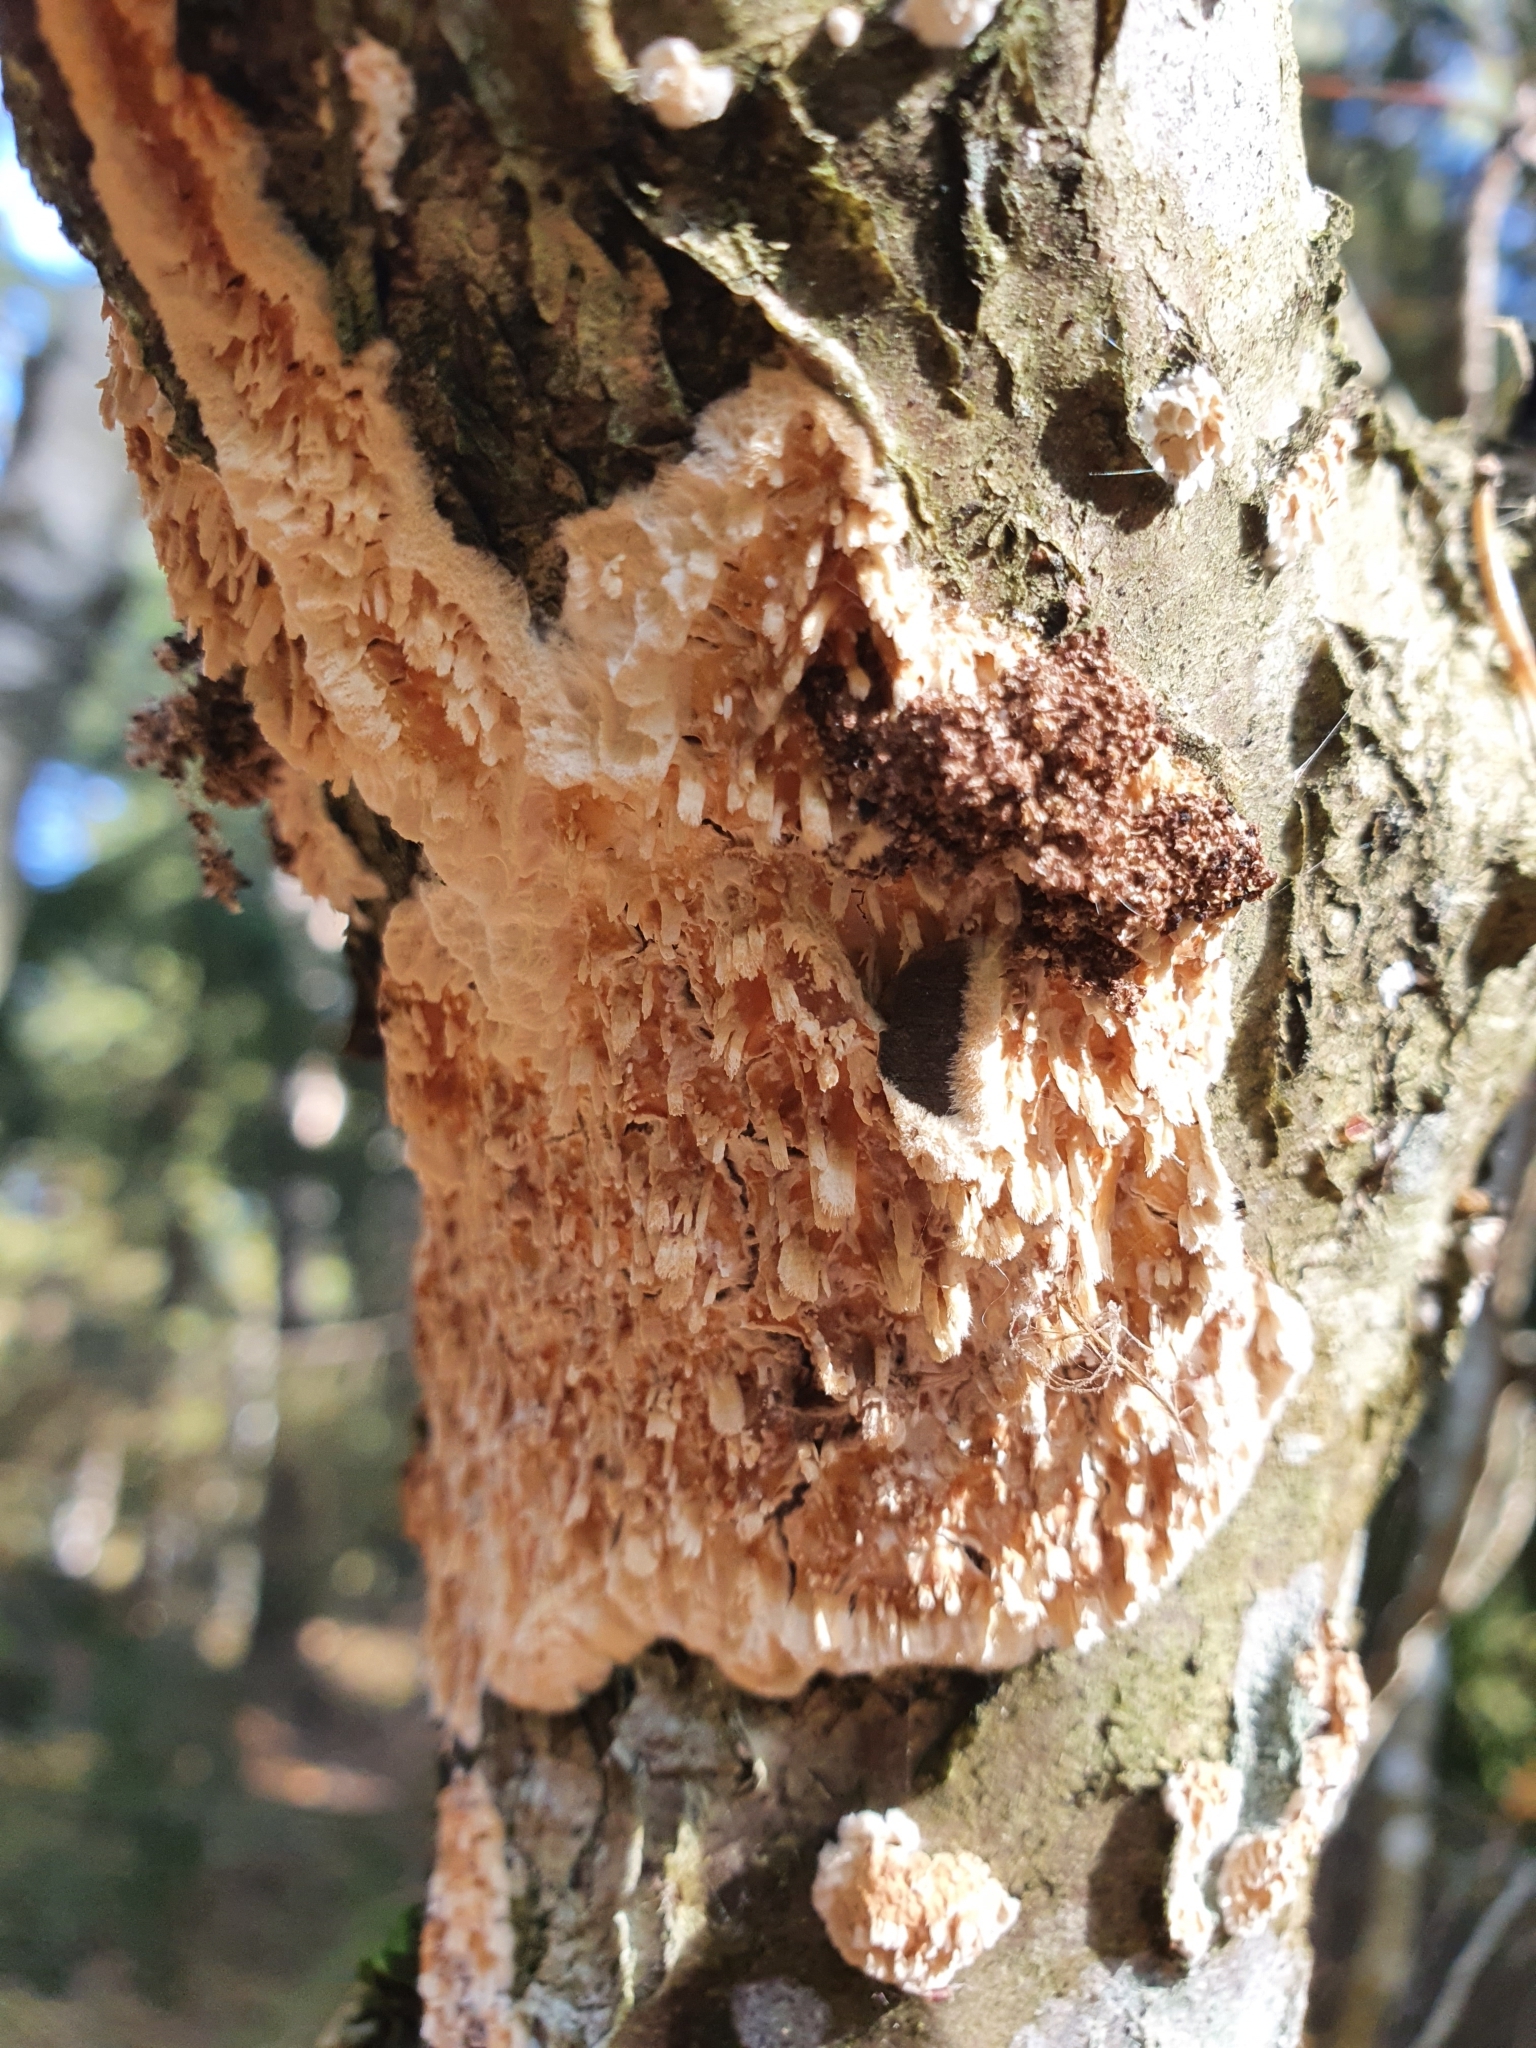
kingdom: Fungi
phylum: Basidiomycota
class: Agaricomycetes
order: Hymenochaetales
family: Schizoporaceae
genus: Xylodon
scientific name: Xylodon radula
